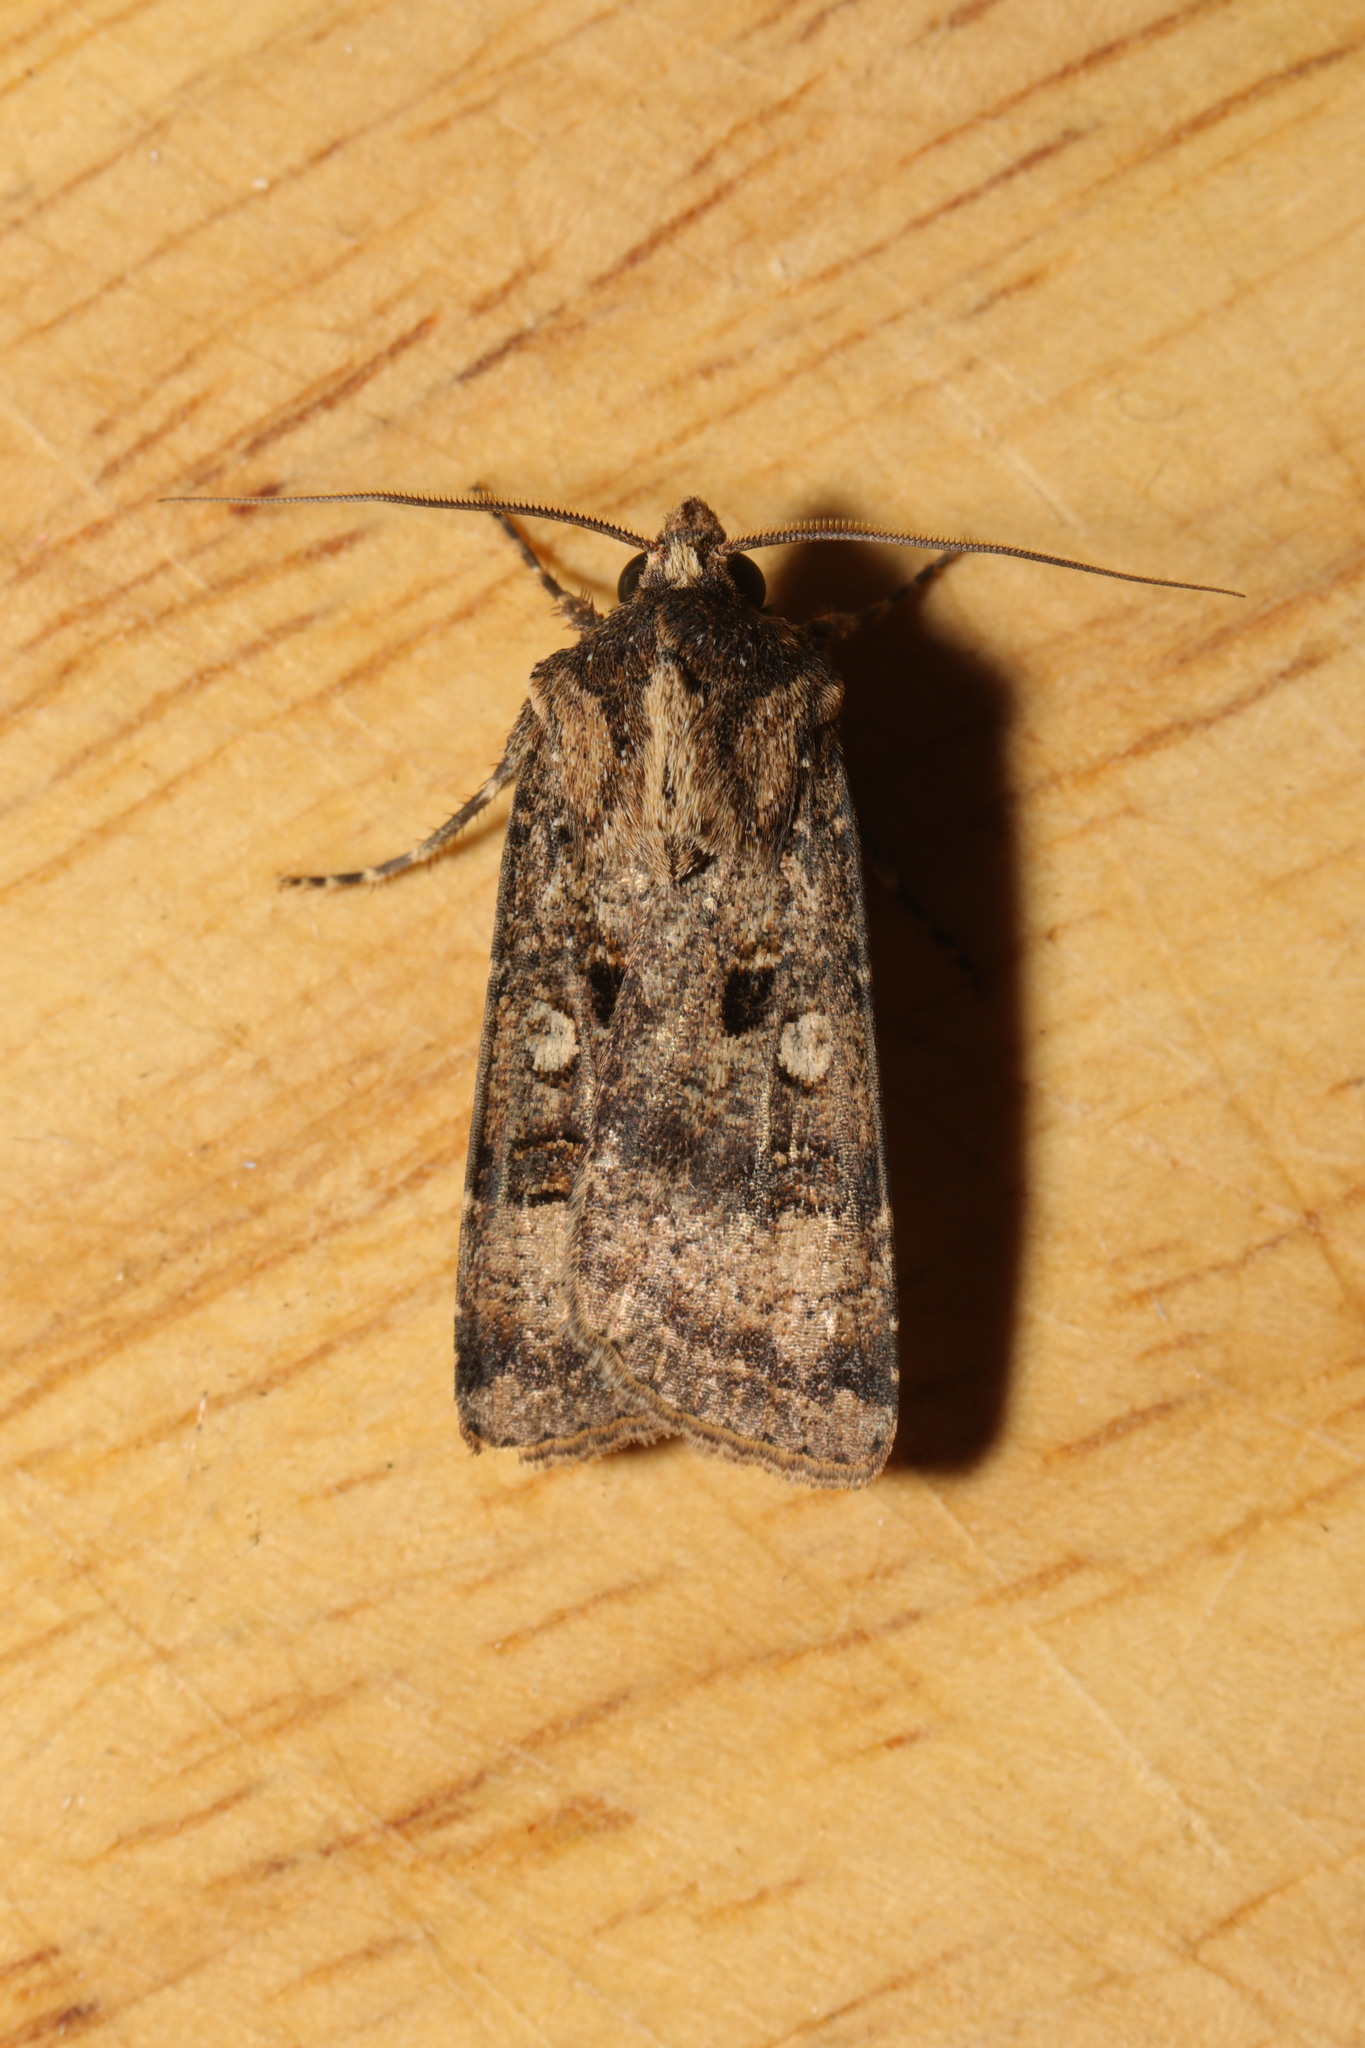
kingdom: Animalia
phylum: Arthropoda
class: Insecta
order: Lepidoptera
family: Noctuidae
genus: Agrotis
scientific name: Agrotis trux
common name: Crescent dart
